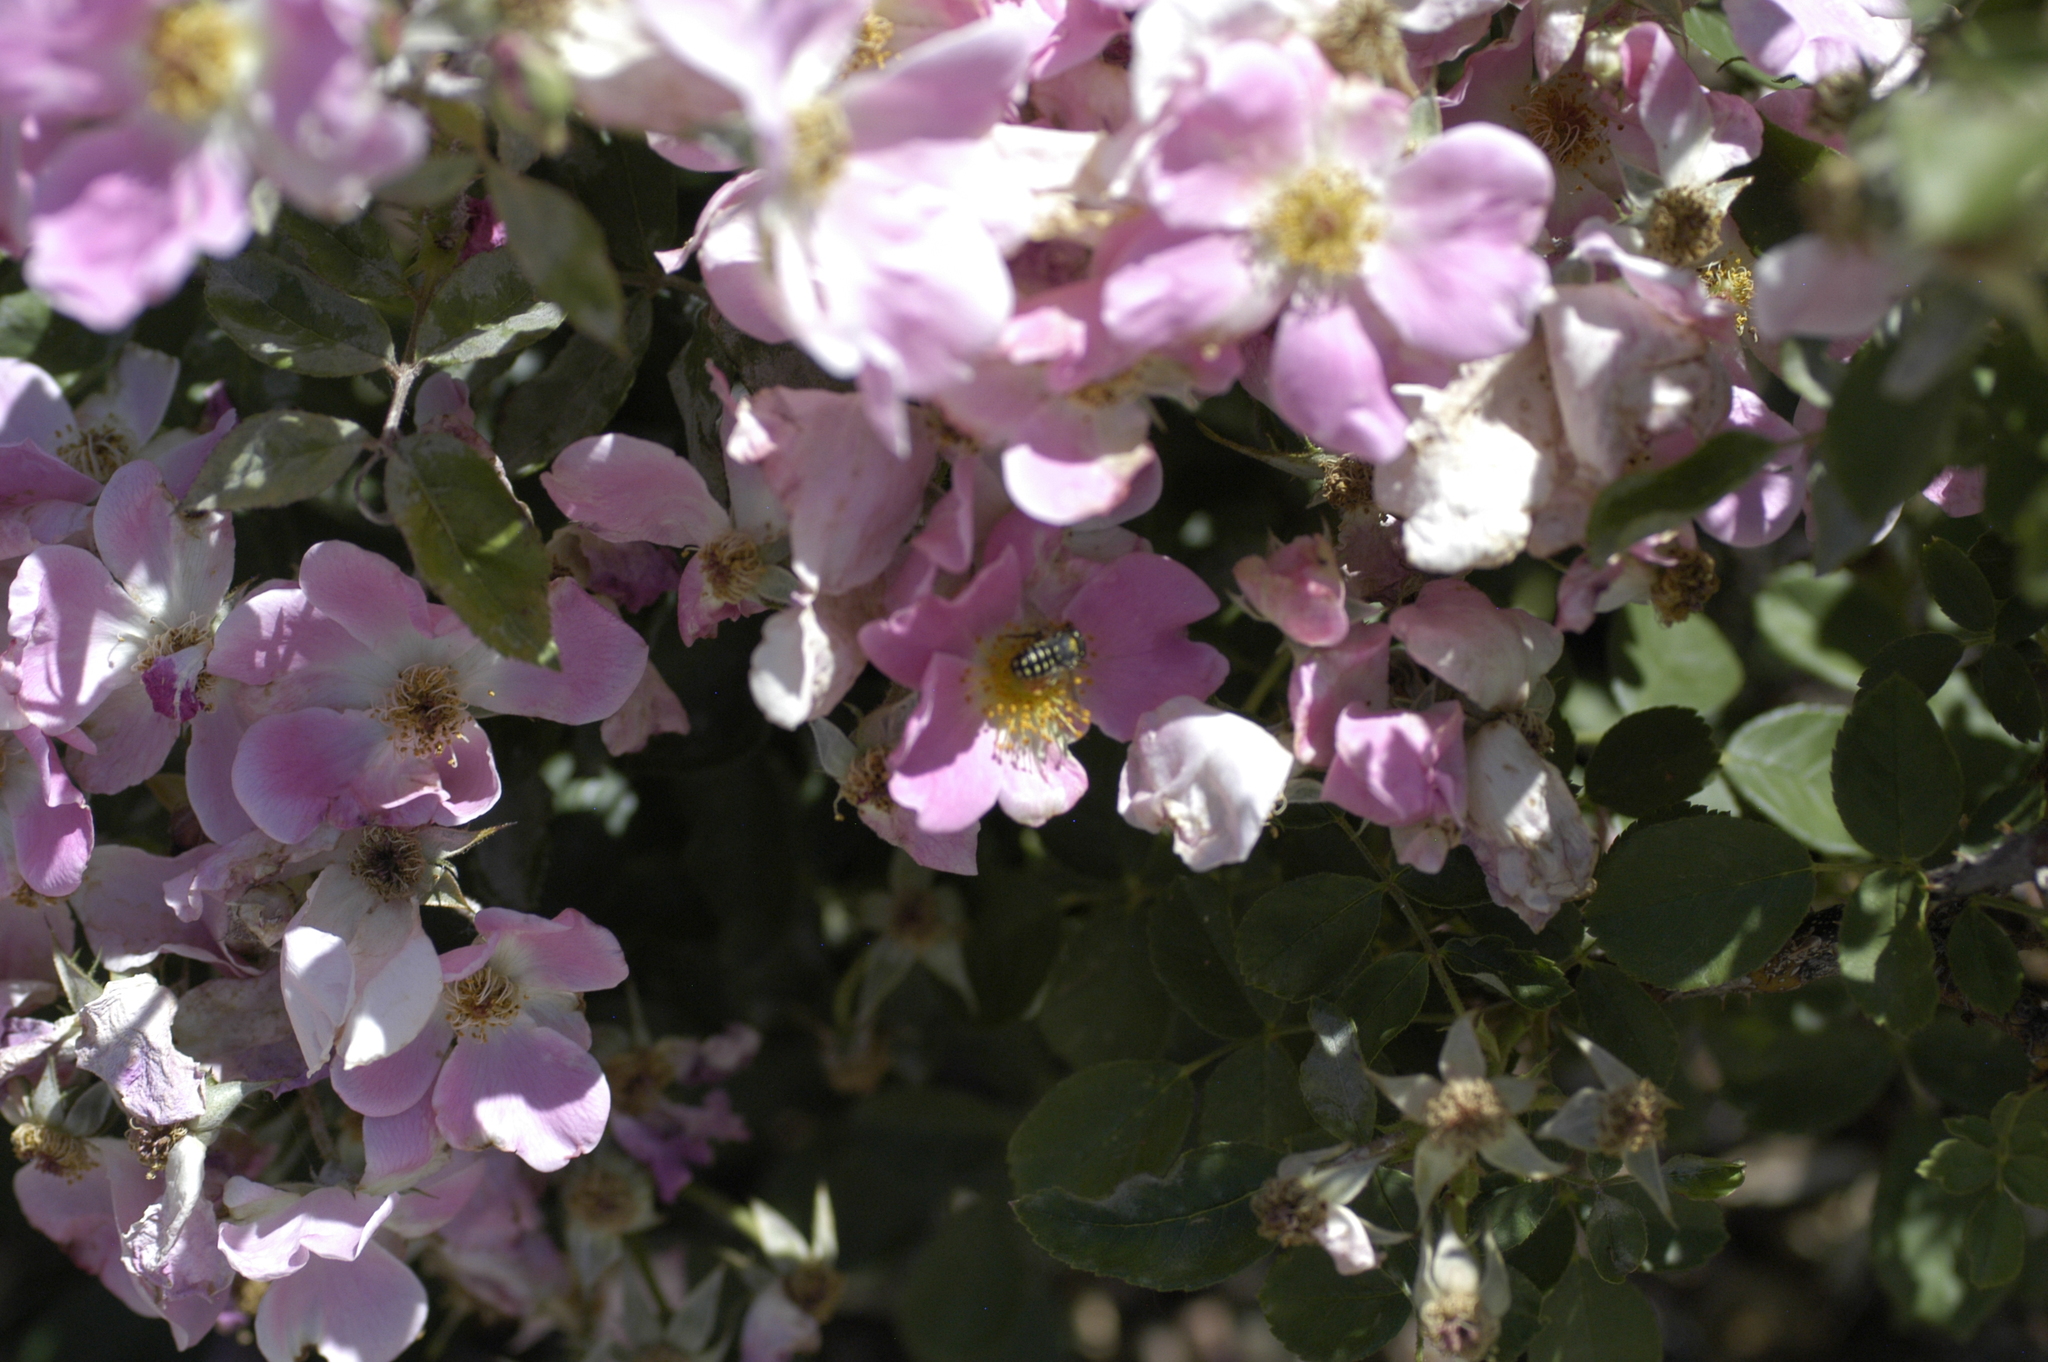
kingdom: Animalia
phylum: Arthropoda
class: Insecta
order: Hymenoptera
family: Megachilidae
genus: Anthidium
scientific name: Anthidium maculosum
